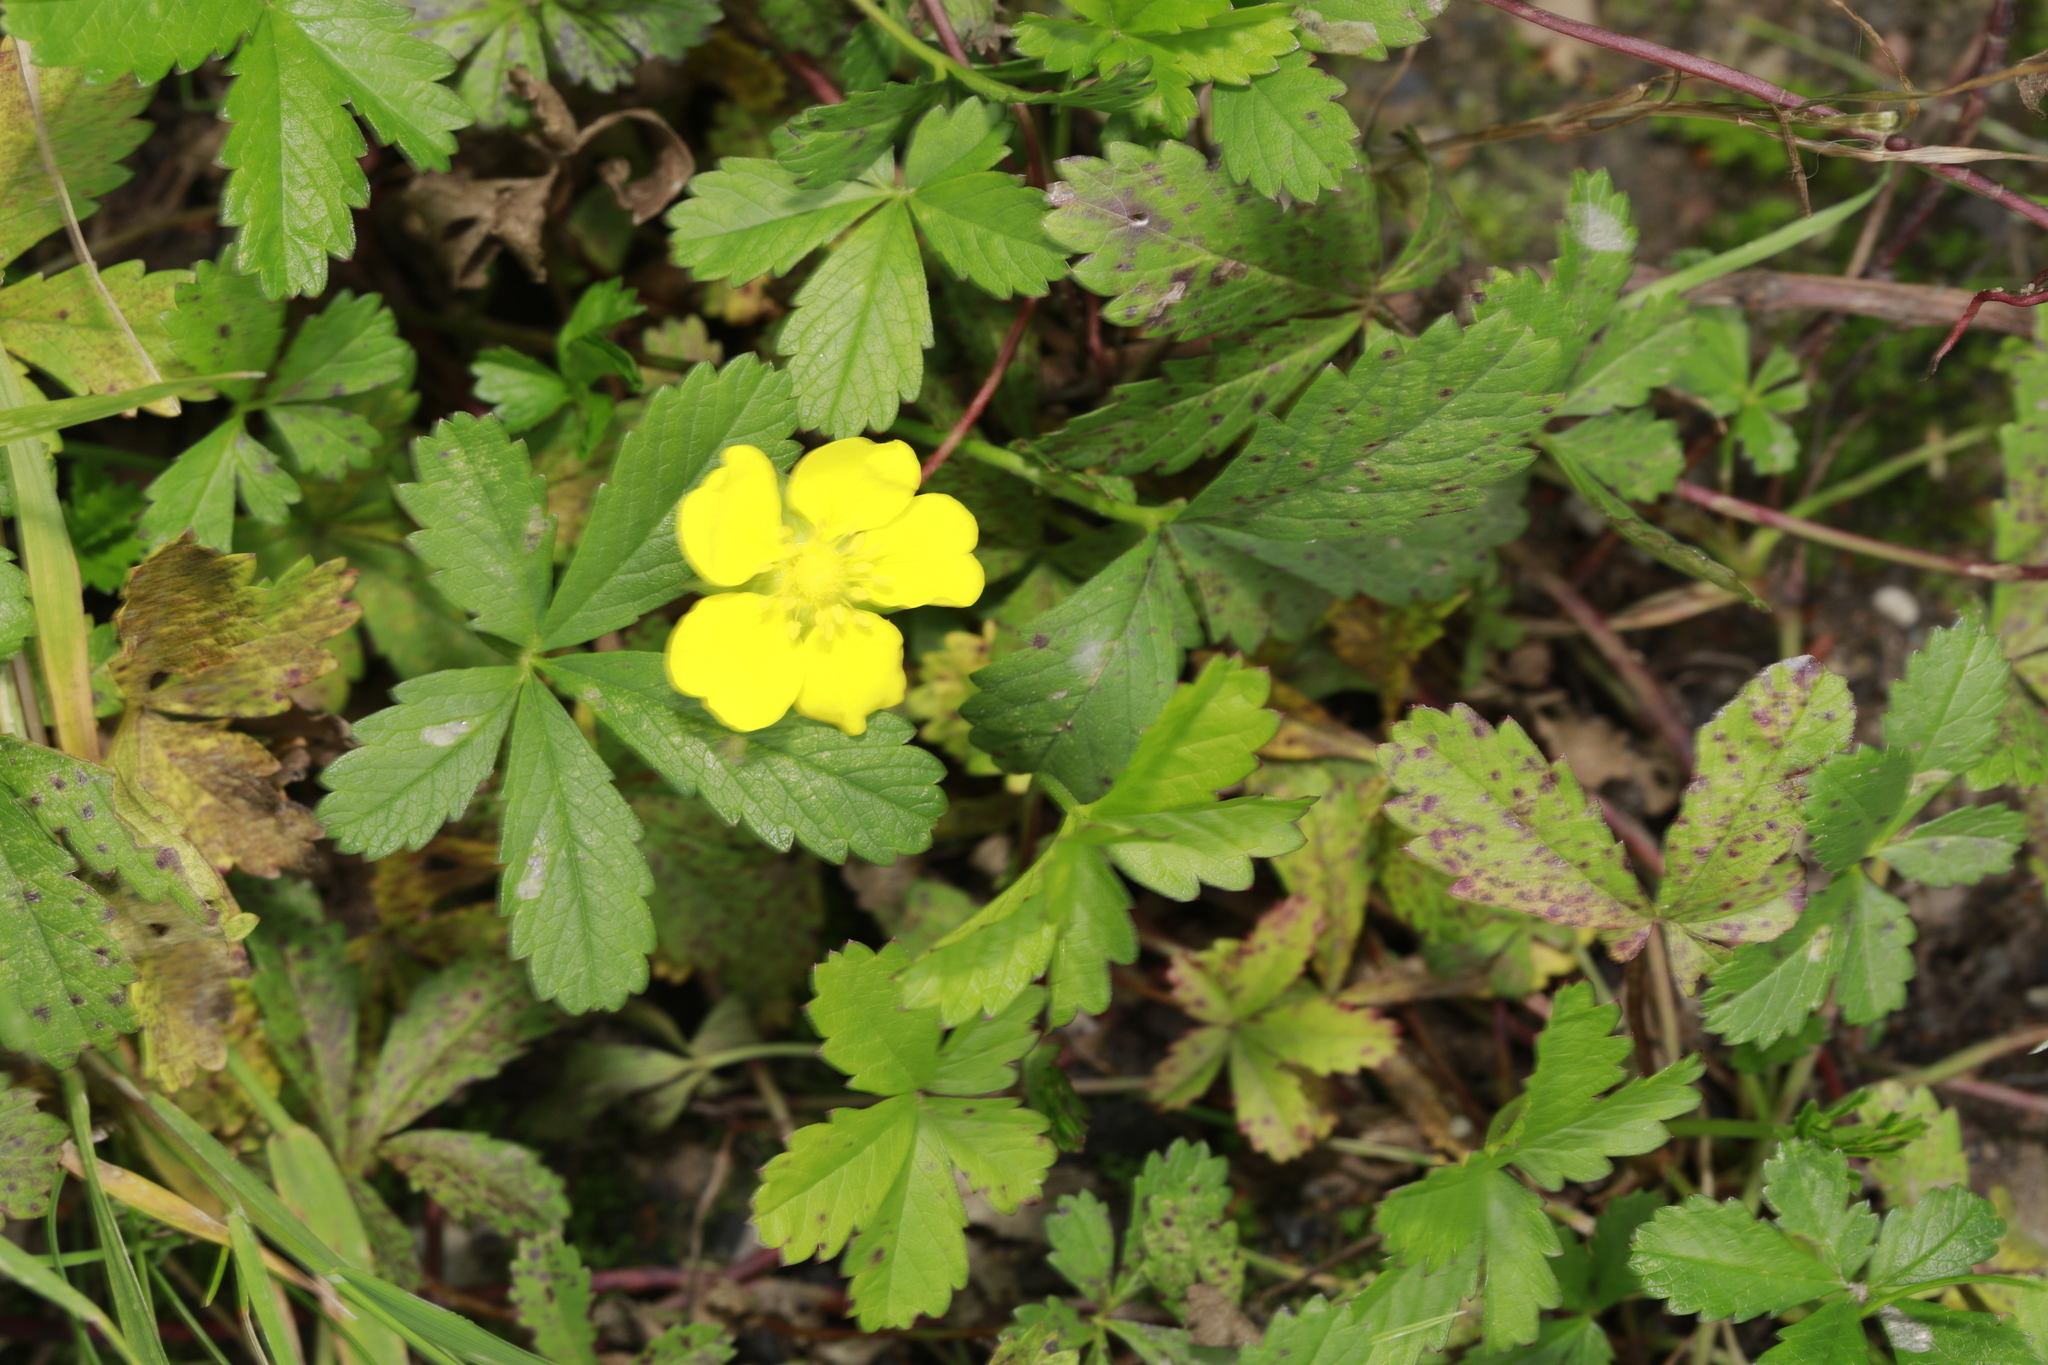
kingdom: Plantae
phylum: Tracheophyta
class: Magnoliopsida
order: Rosales
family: Rosaceae
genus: Potentilla
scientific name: Potentilla reptans
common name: Creeping cinquefoil
